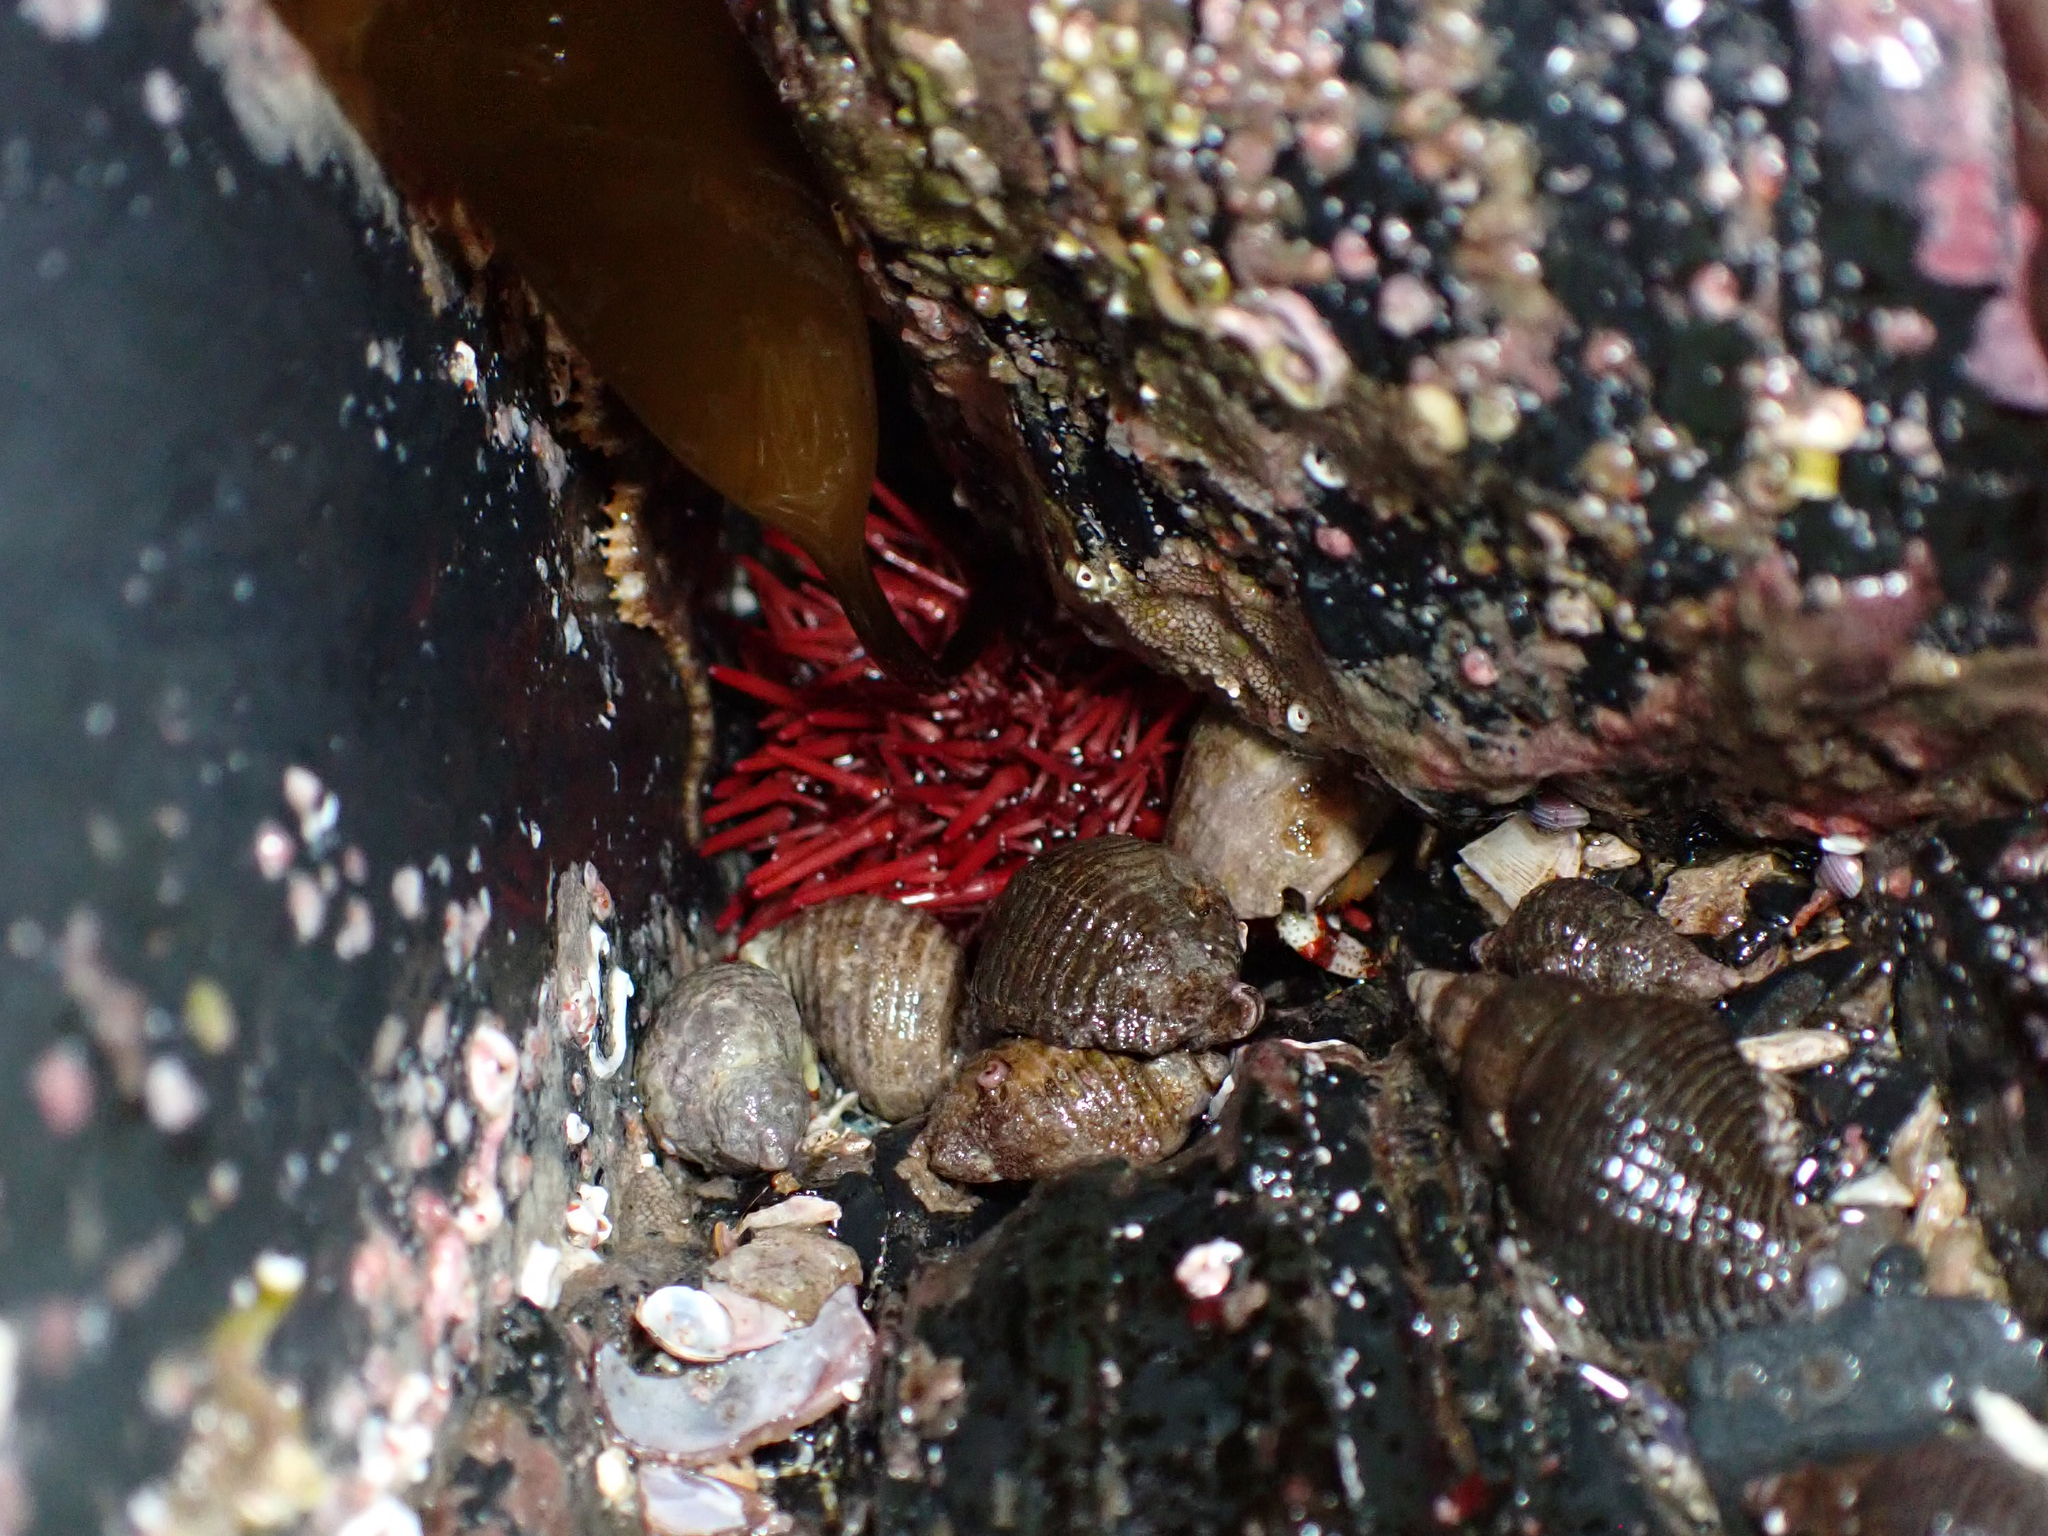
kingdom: Animalia
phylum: Echinodermata
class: Echinoidea
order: Camarodonta
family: Strongylocentrotidae
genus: Mesocentrotus
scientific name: Mesocentrotus franciscanus
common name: Red sea urchin
